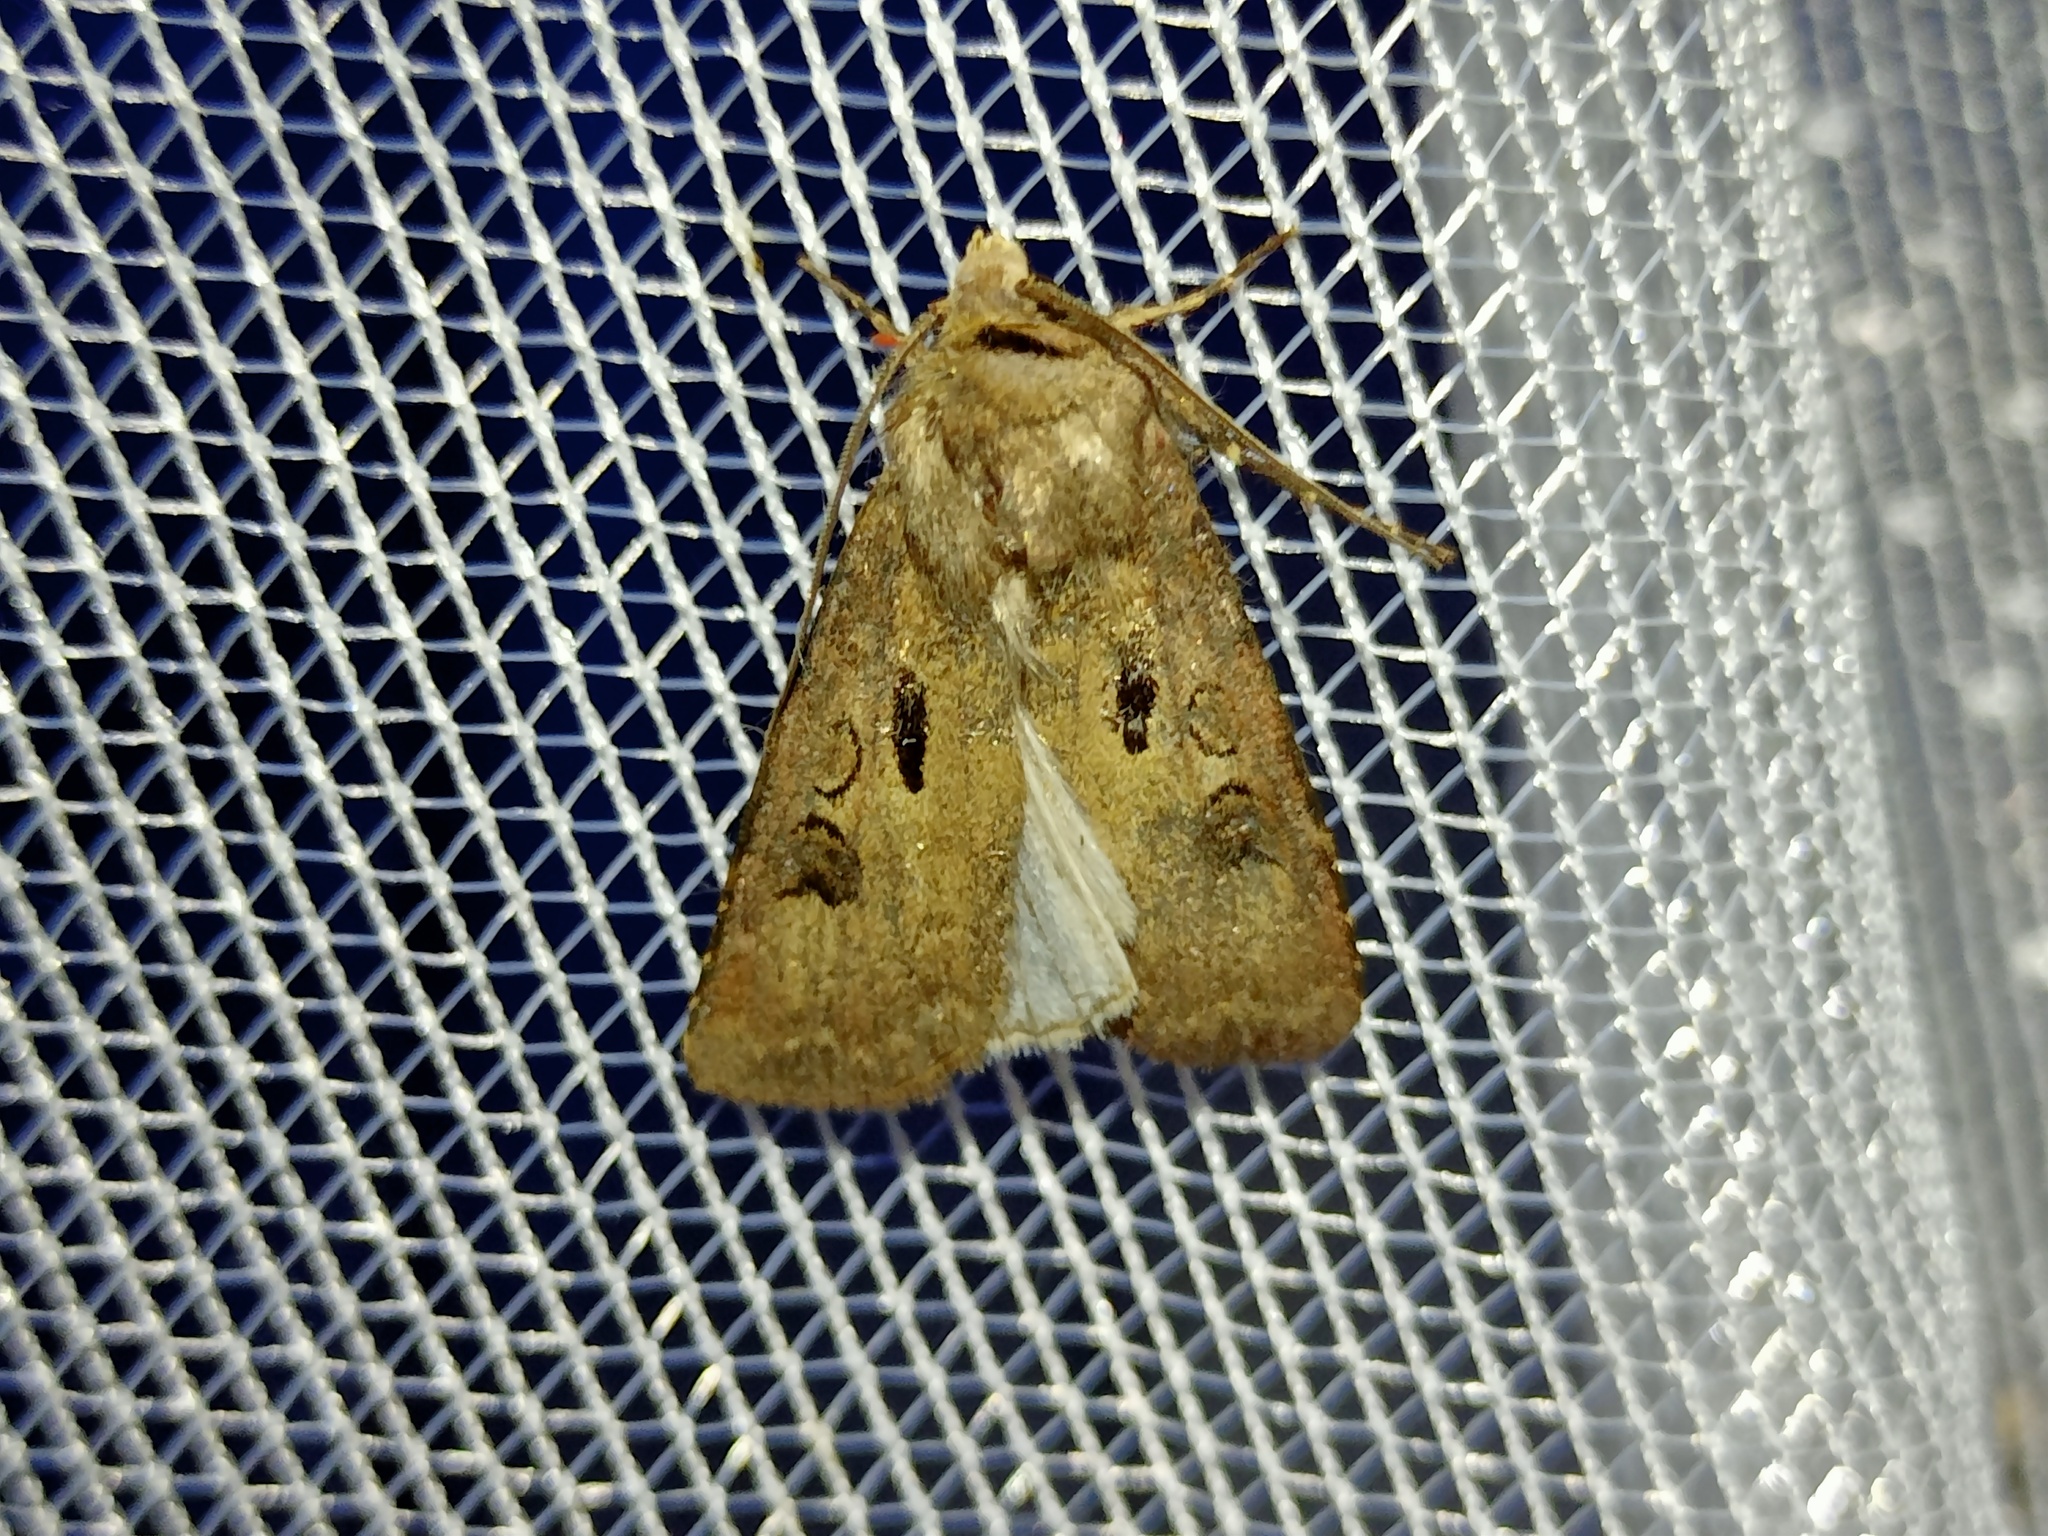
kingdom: Animalia
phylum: Arthropoda
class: Insecta
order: Lepidoptera
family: Noctuidae
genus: Agrotis
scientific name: Agrotis exclamationis
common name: Heart and dart
